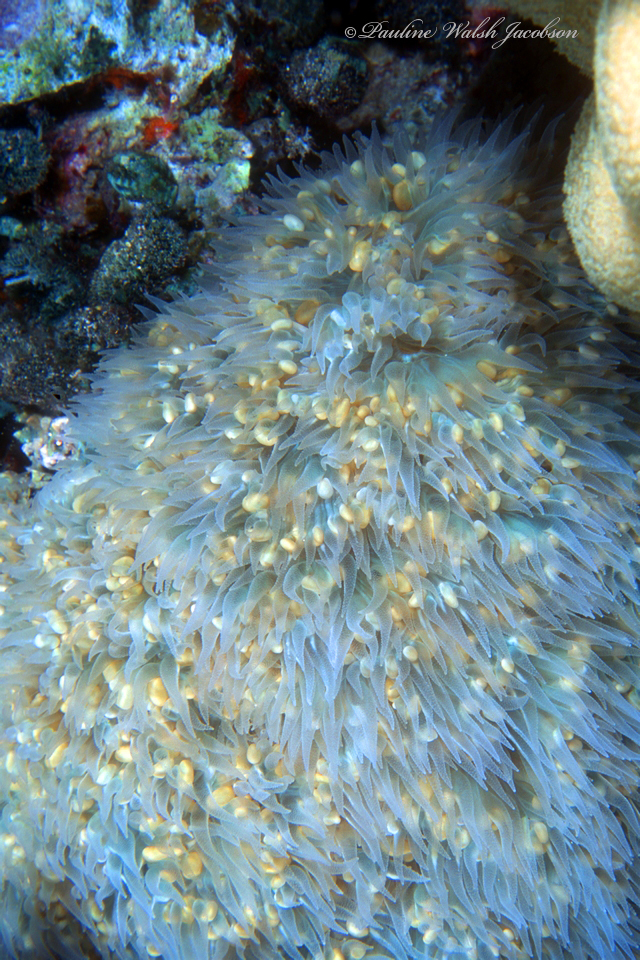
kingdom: Animalia
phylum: Cnidaria
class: Anthozoa
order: Scleractinia
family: Plerogyridae
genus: Plerogyra
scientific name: Plerogyra sinuosa
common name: Bubble coral
